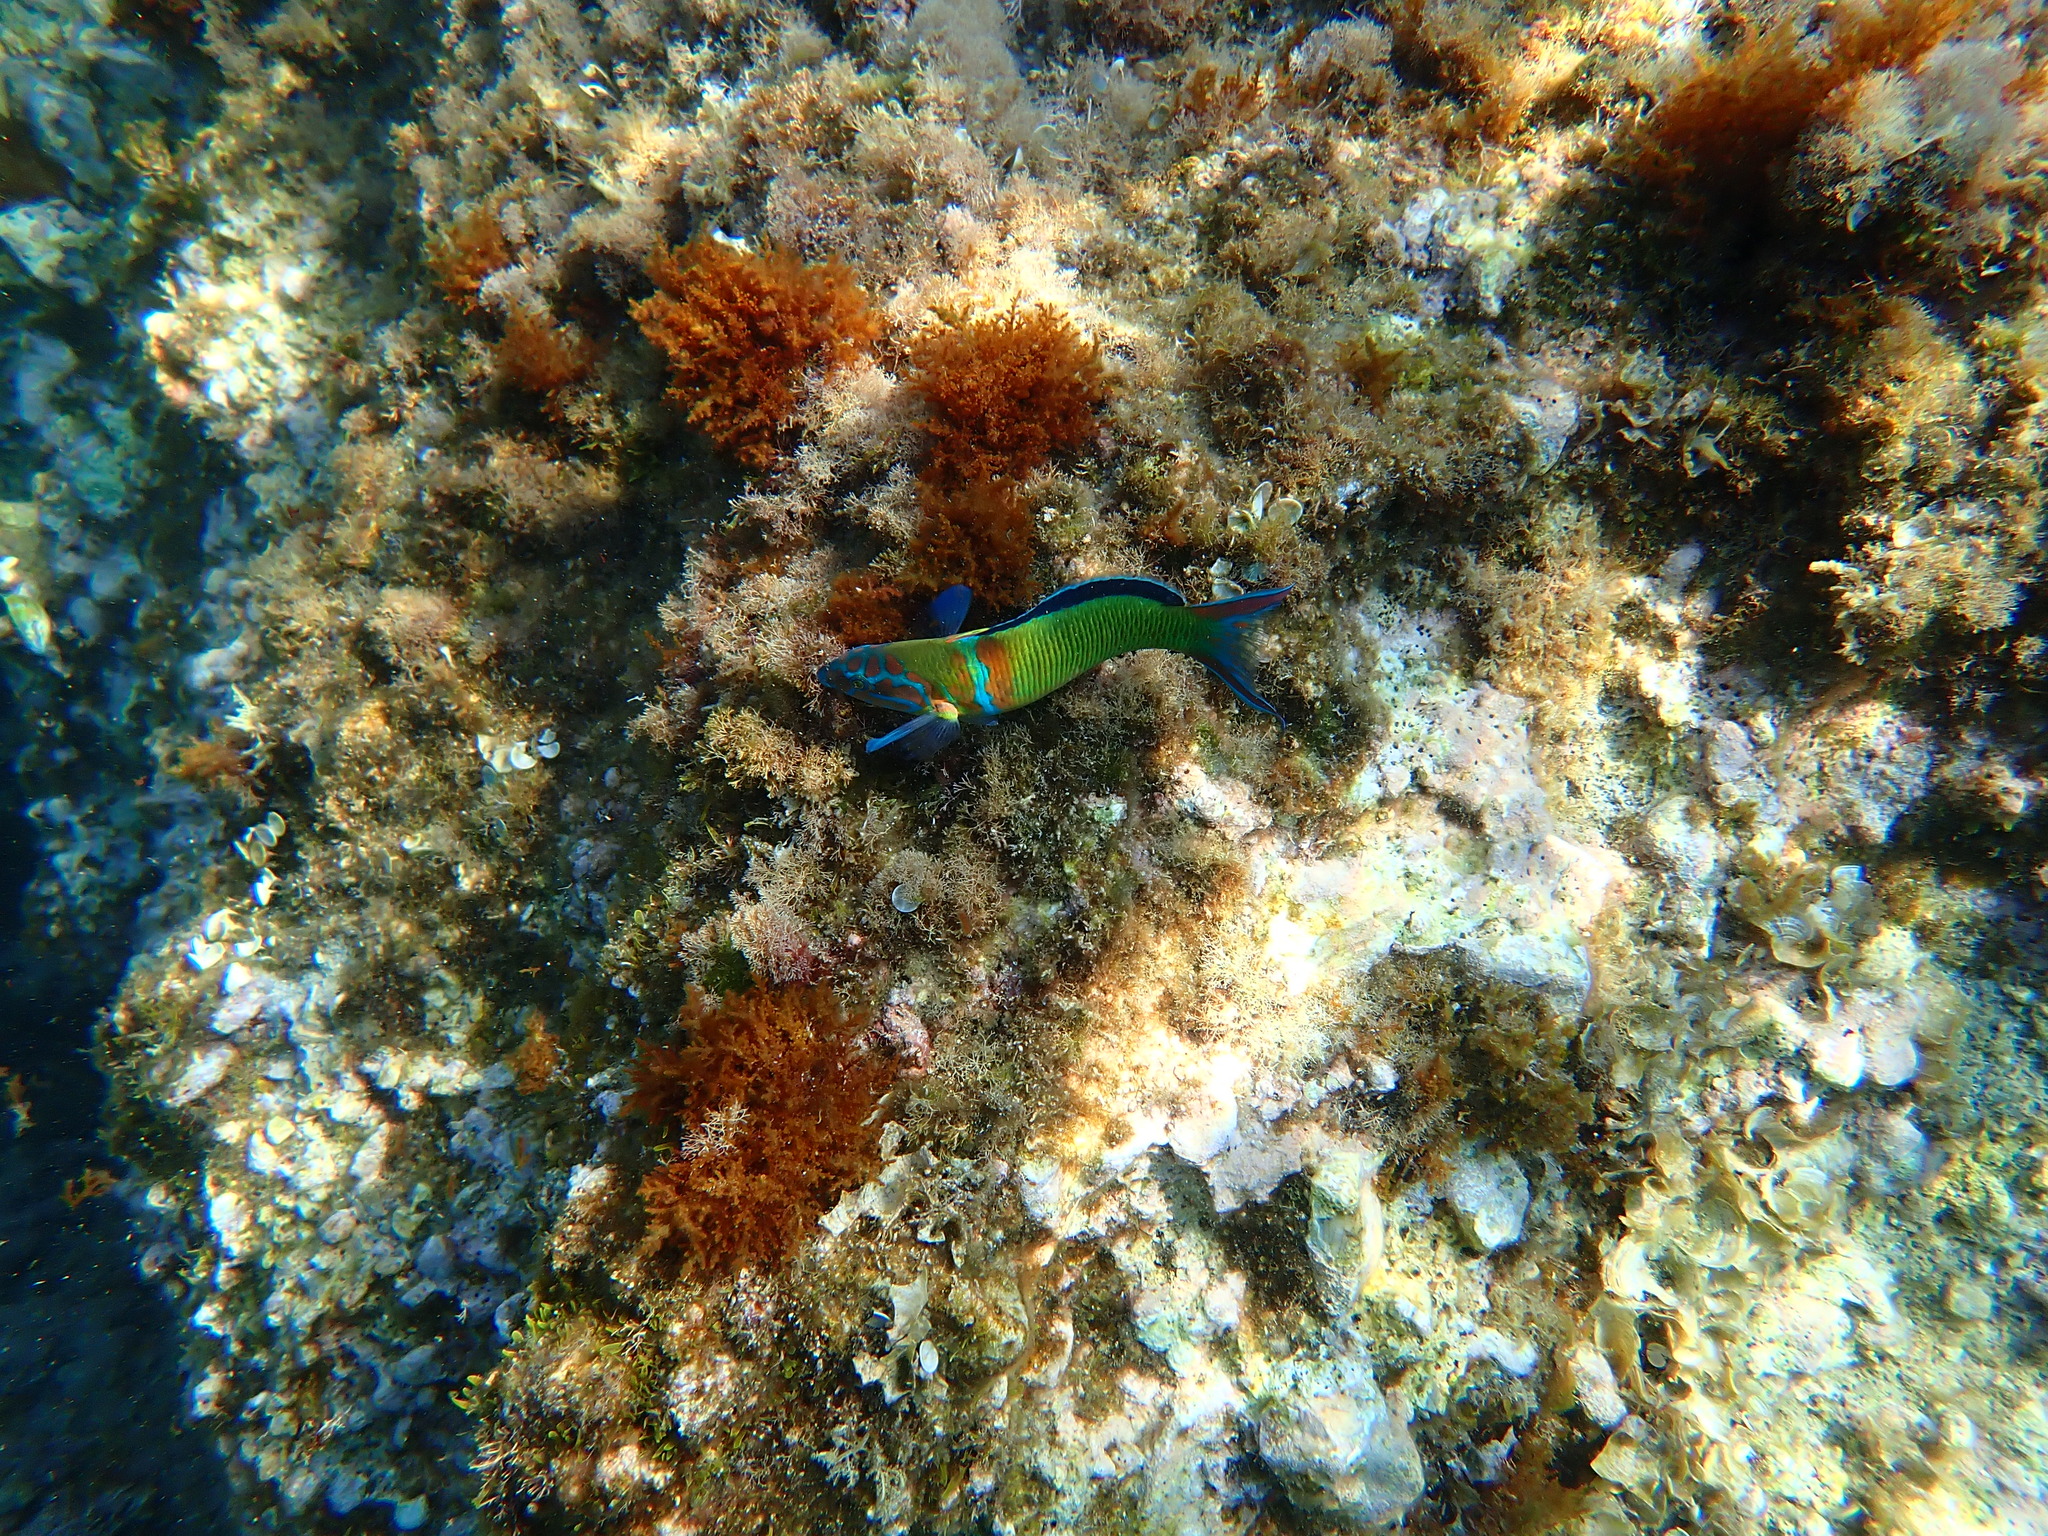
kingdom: Animalia
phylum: Chordata
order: Perciformes
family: Labridae
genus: Thalassoma
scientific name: Thalassoma pavo
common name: Ornate wrasse
